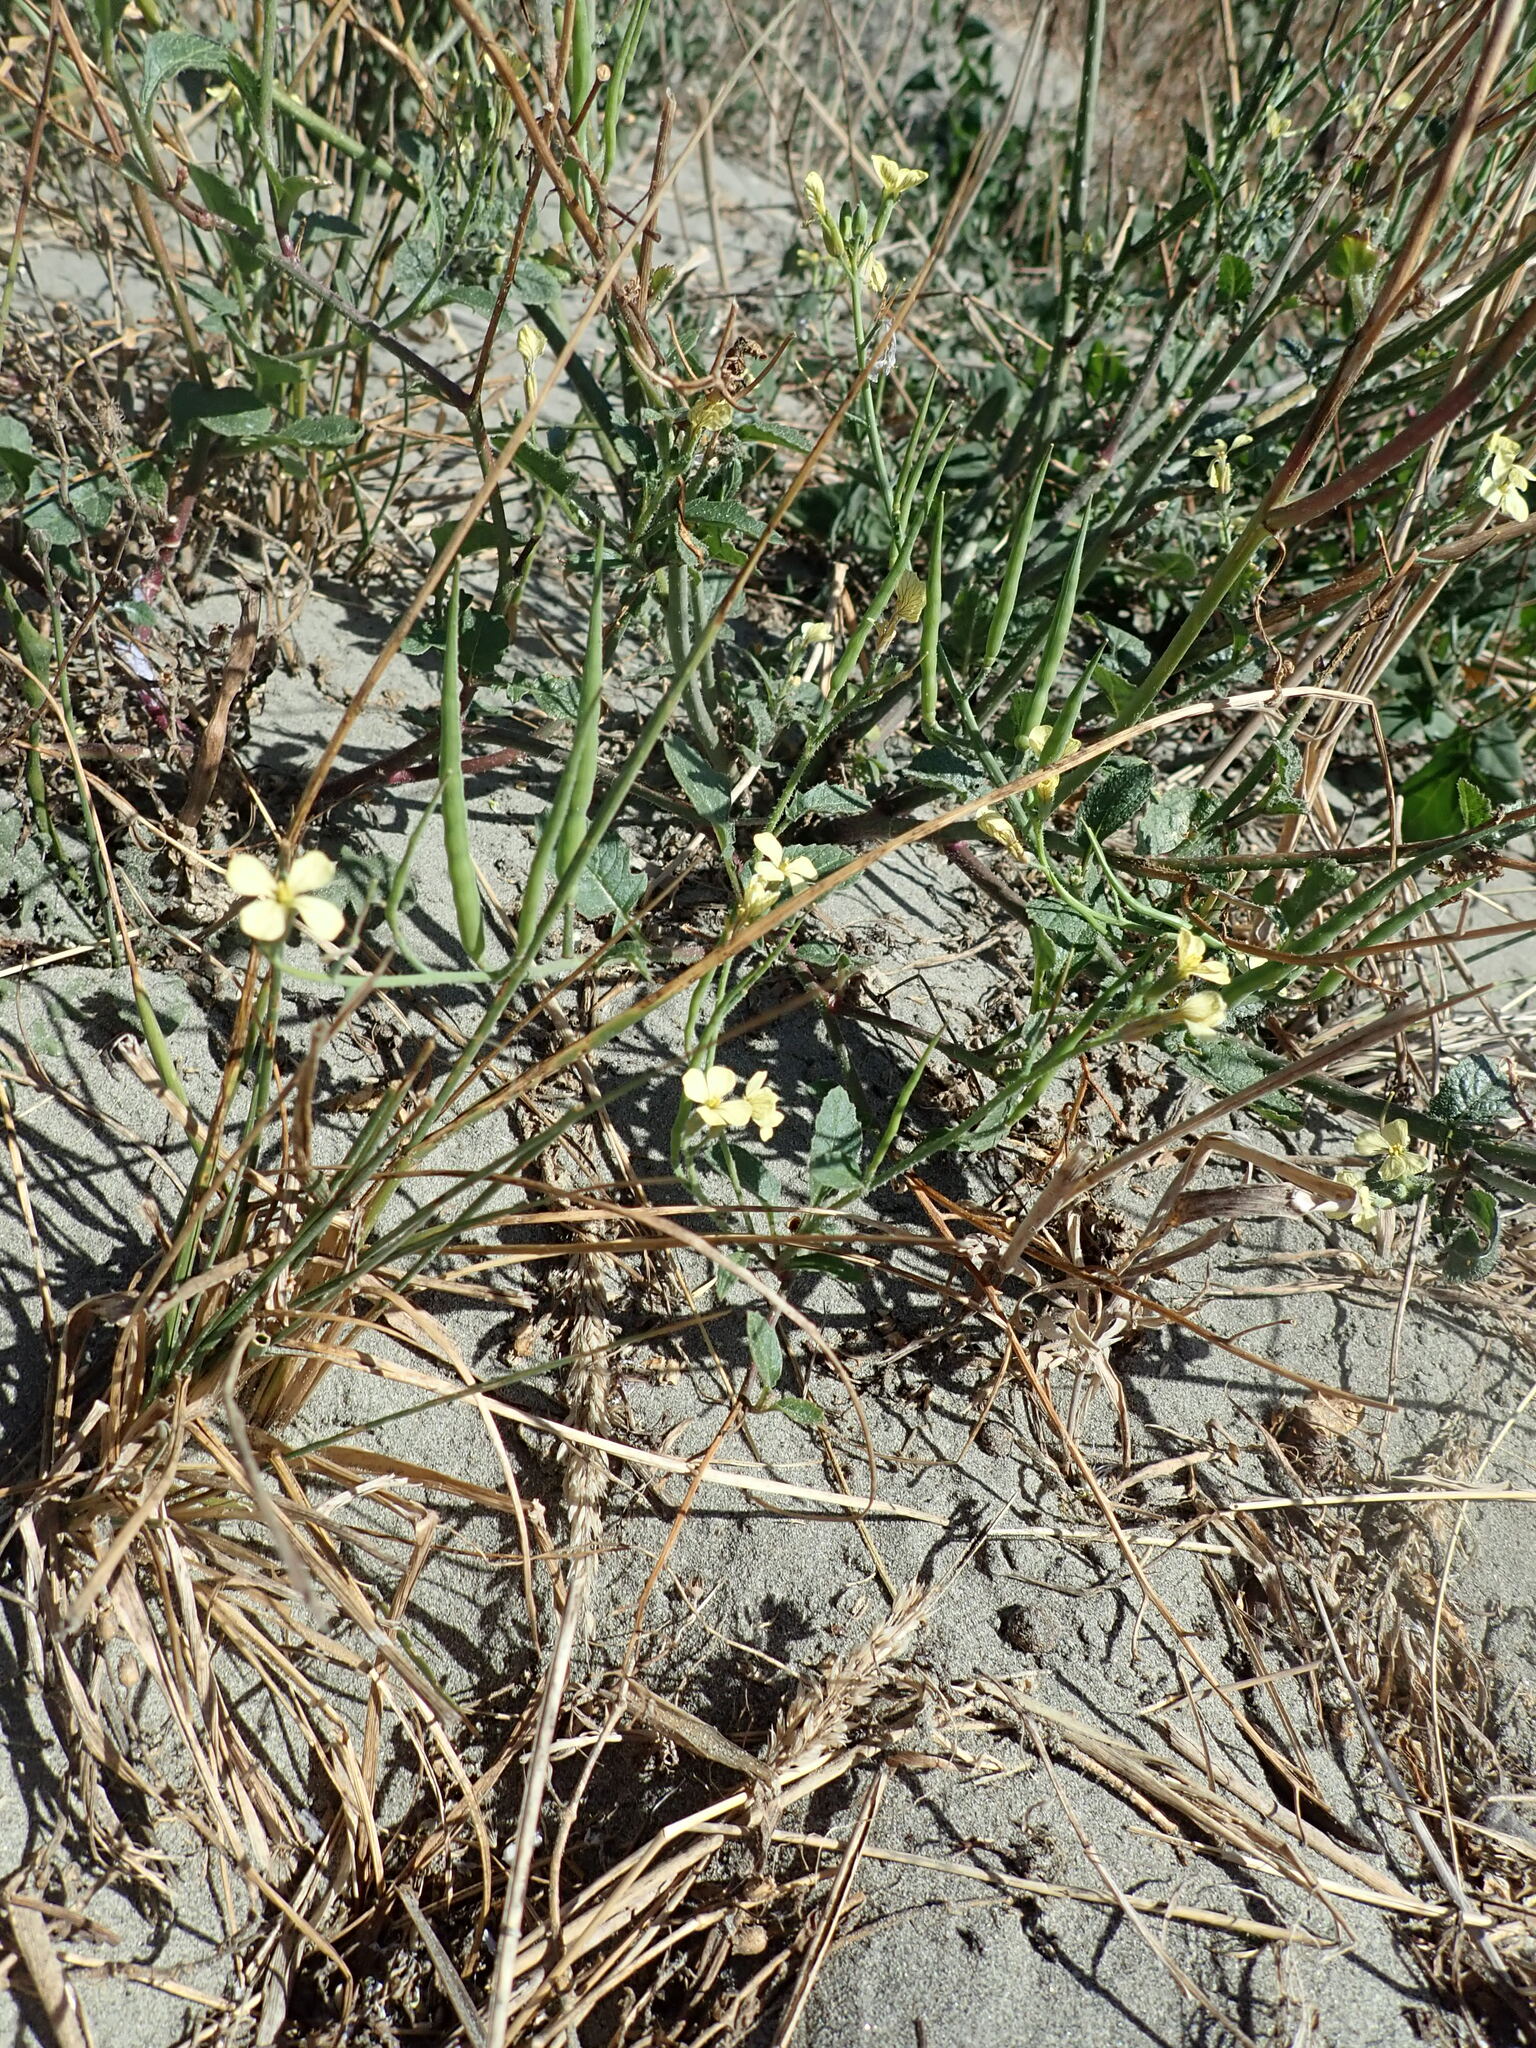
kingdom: Plantae
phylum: Tracheophyta
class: Magnoliopsida
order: Brassicales
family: Brassicaceae
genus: Raphanus
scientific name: Raphanus raphanistrum
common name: Wild radish
